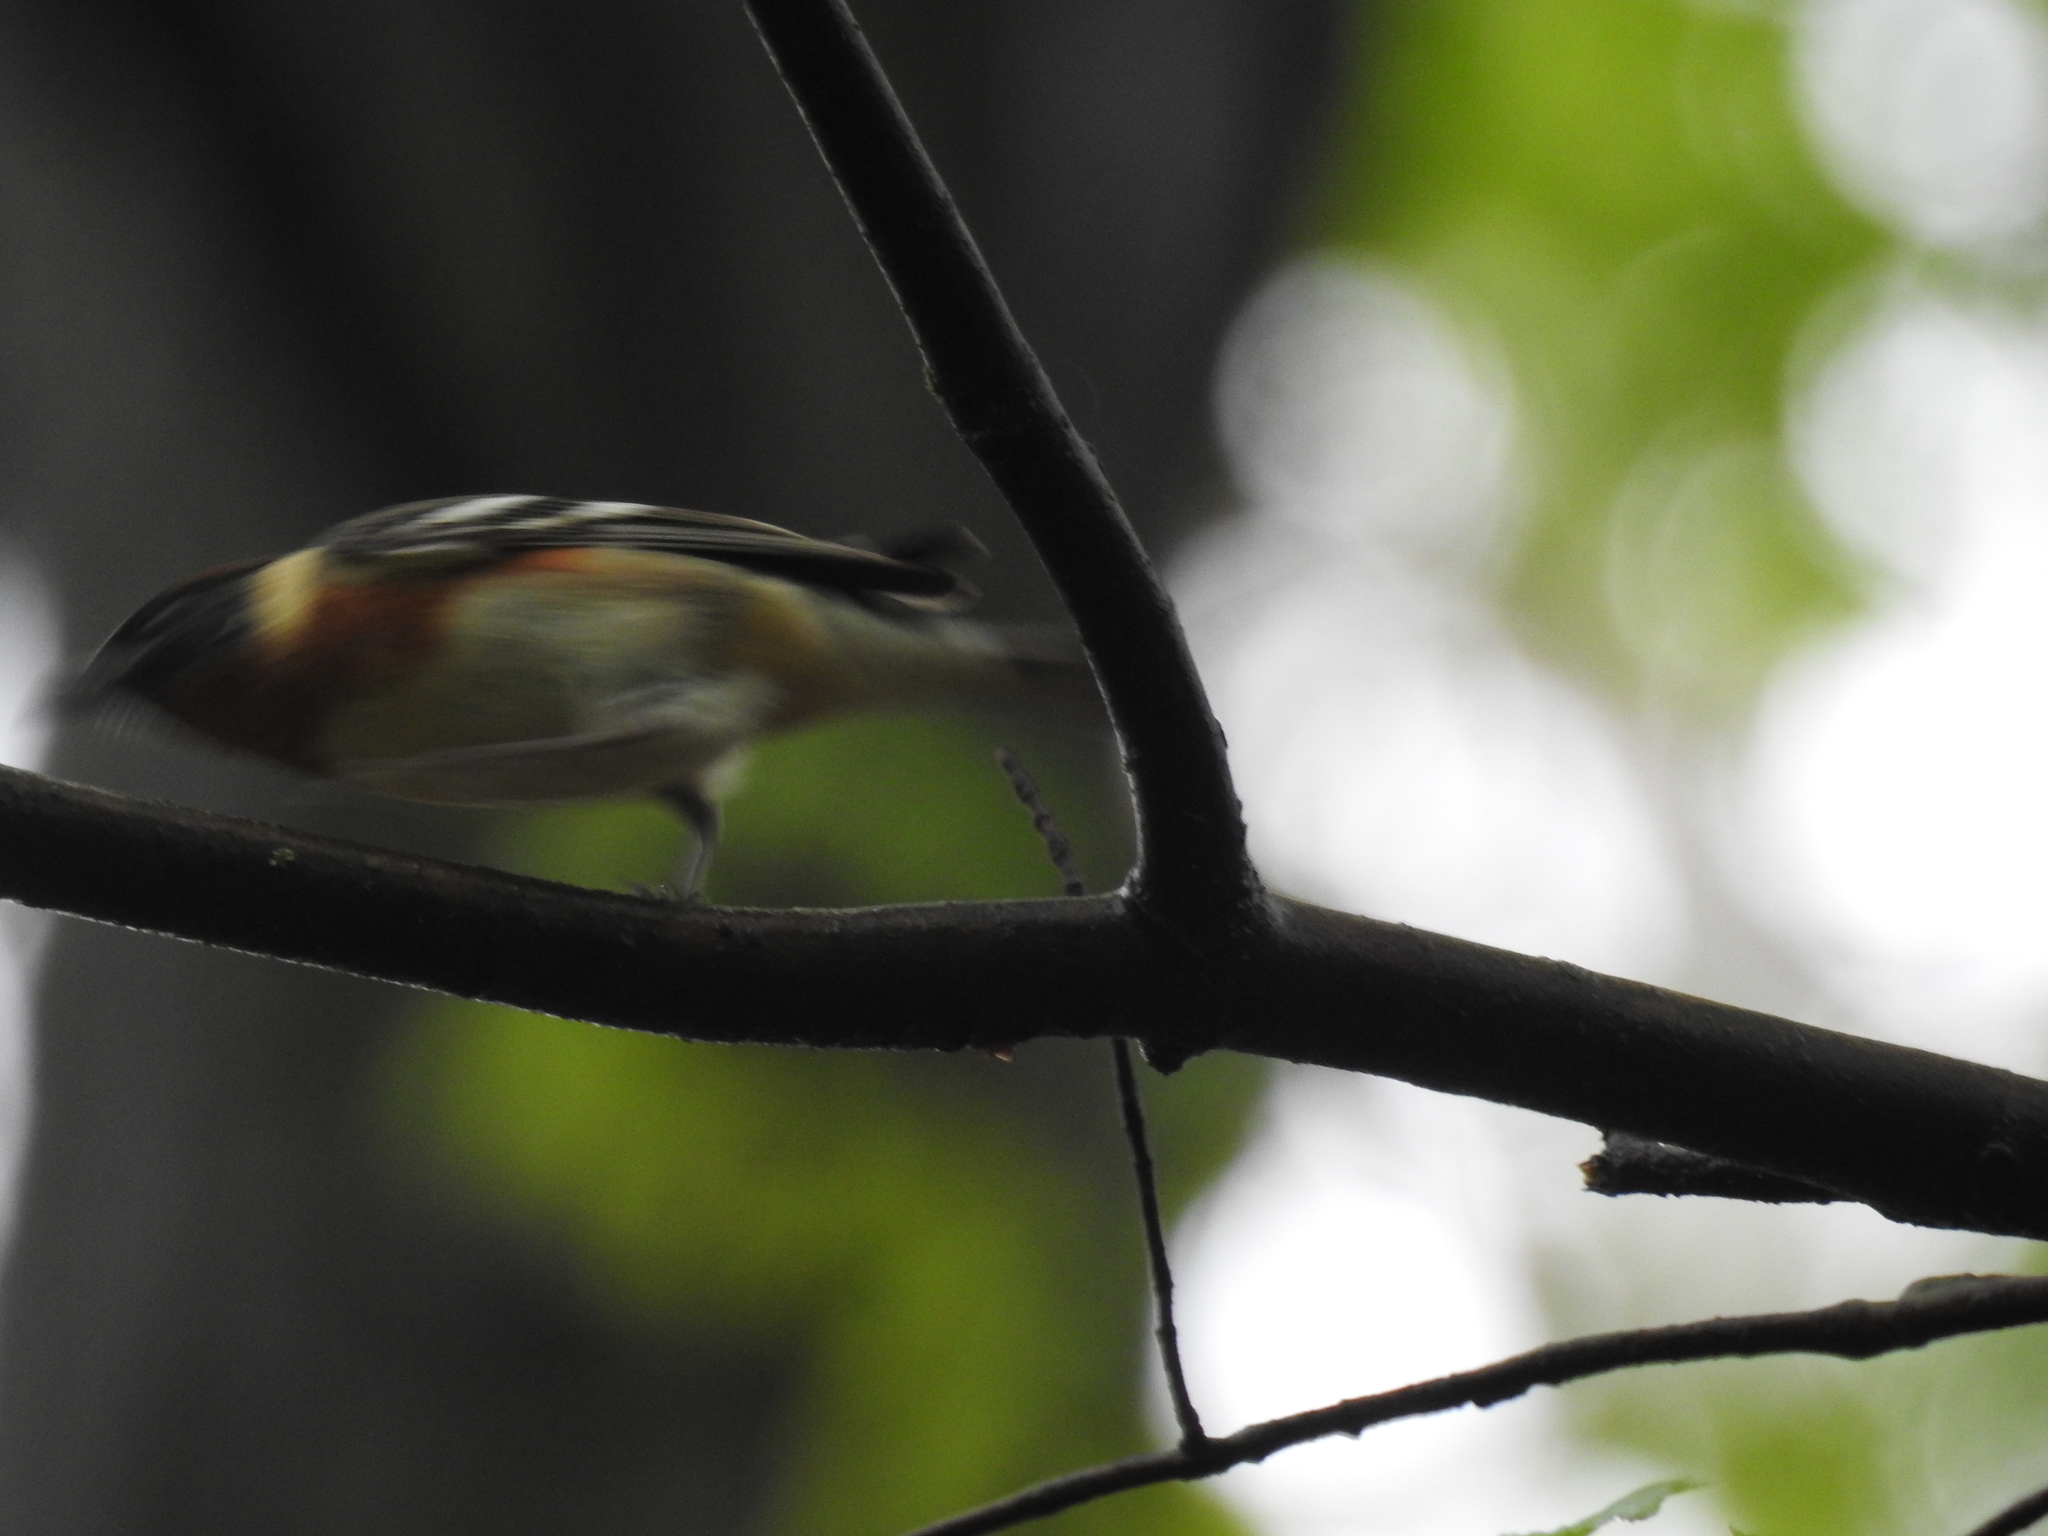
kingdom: Animalia
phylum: Chordata
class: Aves
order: Passeriformes
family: Parulidae
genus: Setophaga
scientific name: Setophaga castanea
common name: Bay-breasted warbler
